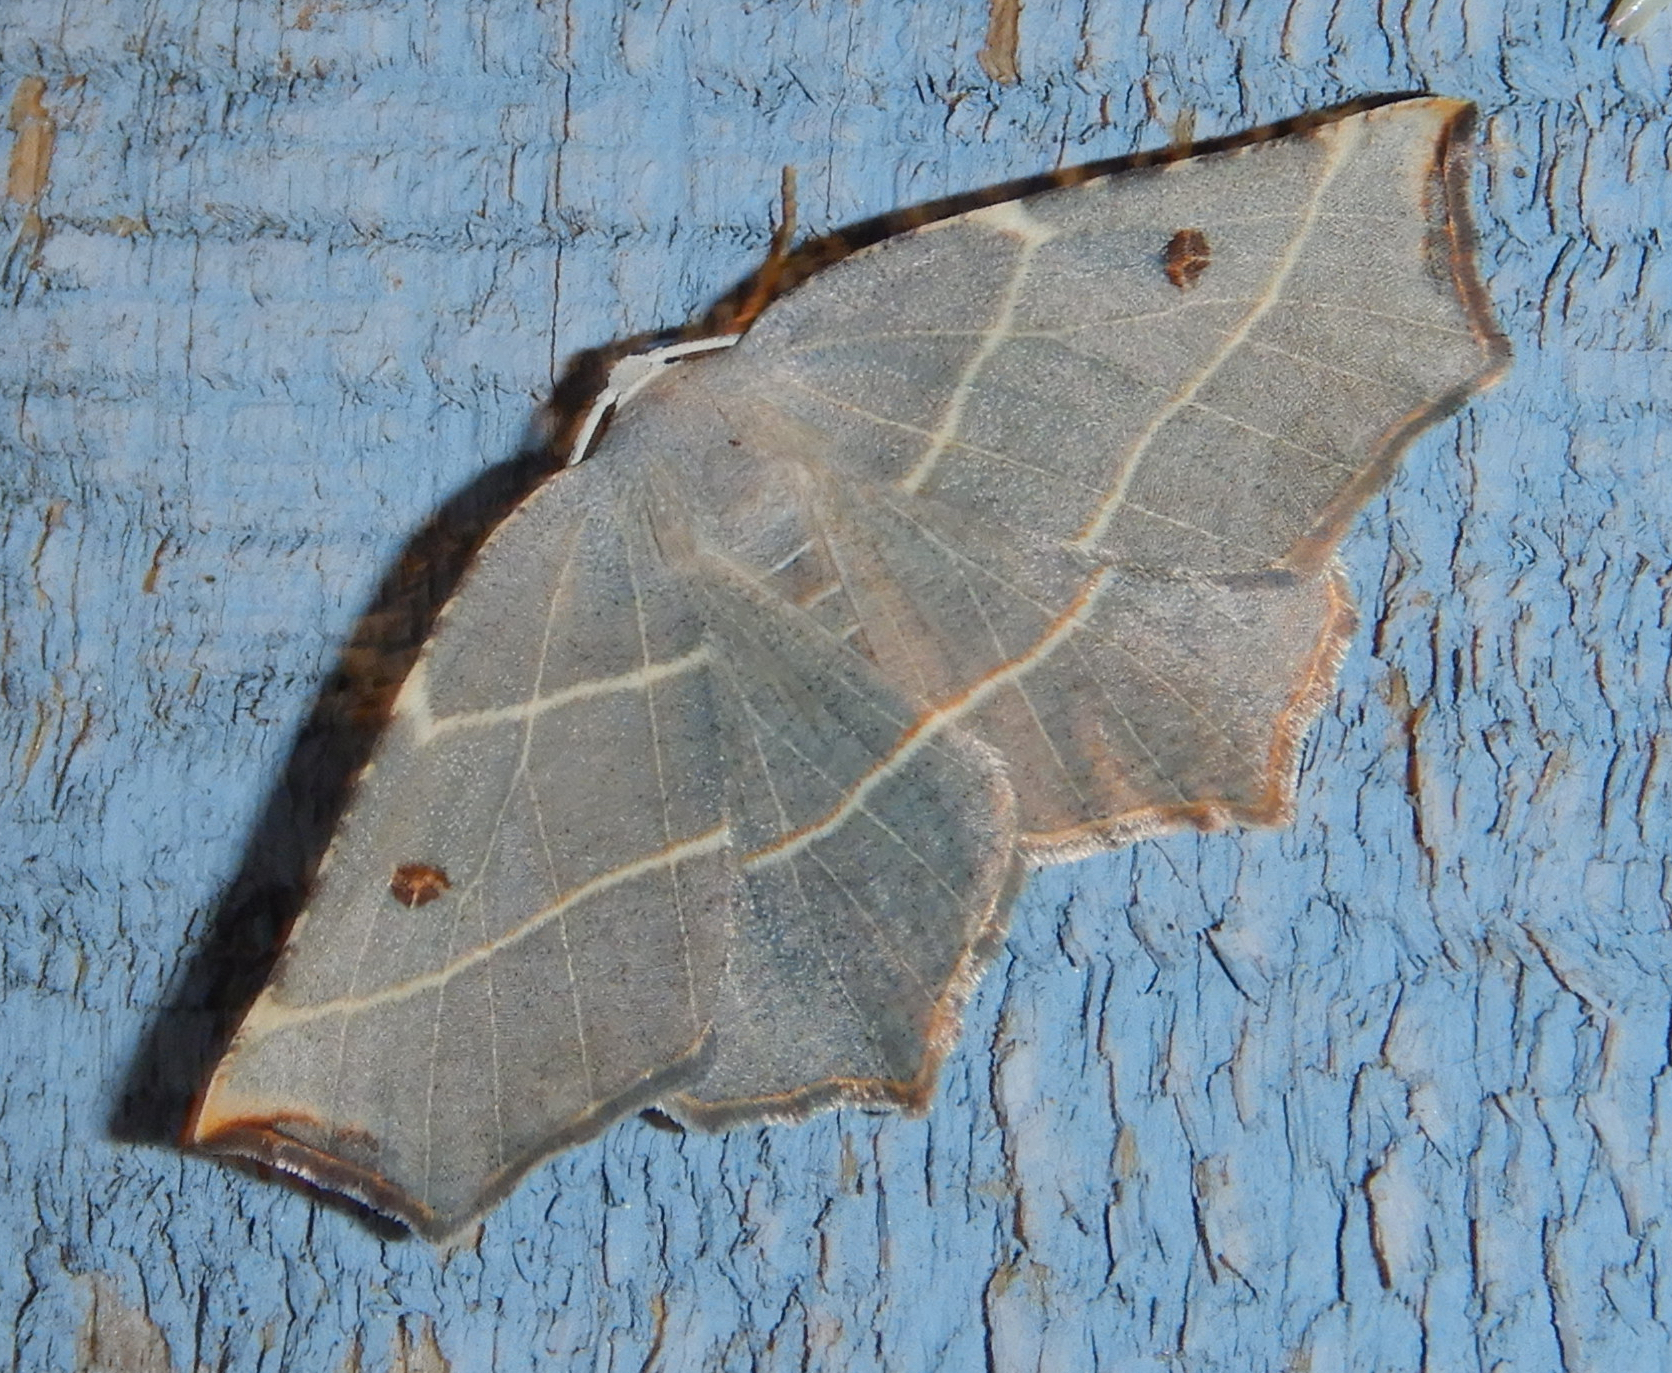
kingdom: Animalia
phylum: Arthropoda
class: Insecta
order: Lepidoptera
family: Geometridae
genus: Metanema
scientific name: Metanema inatomaria
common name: Pale metanema
